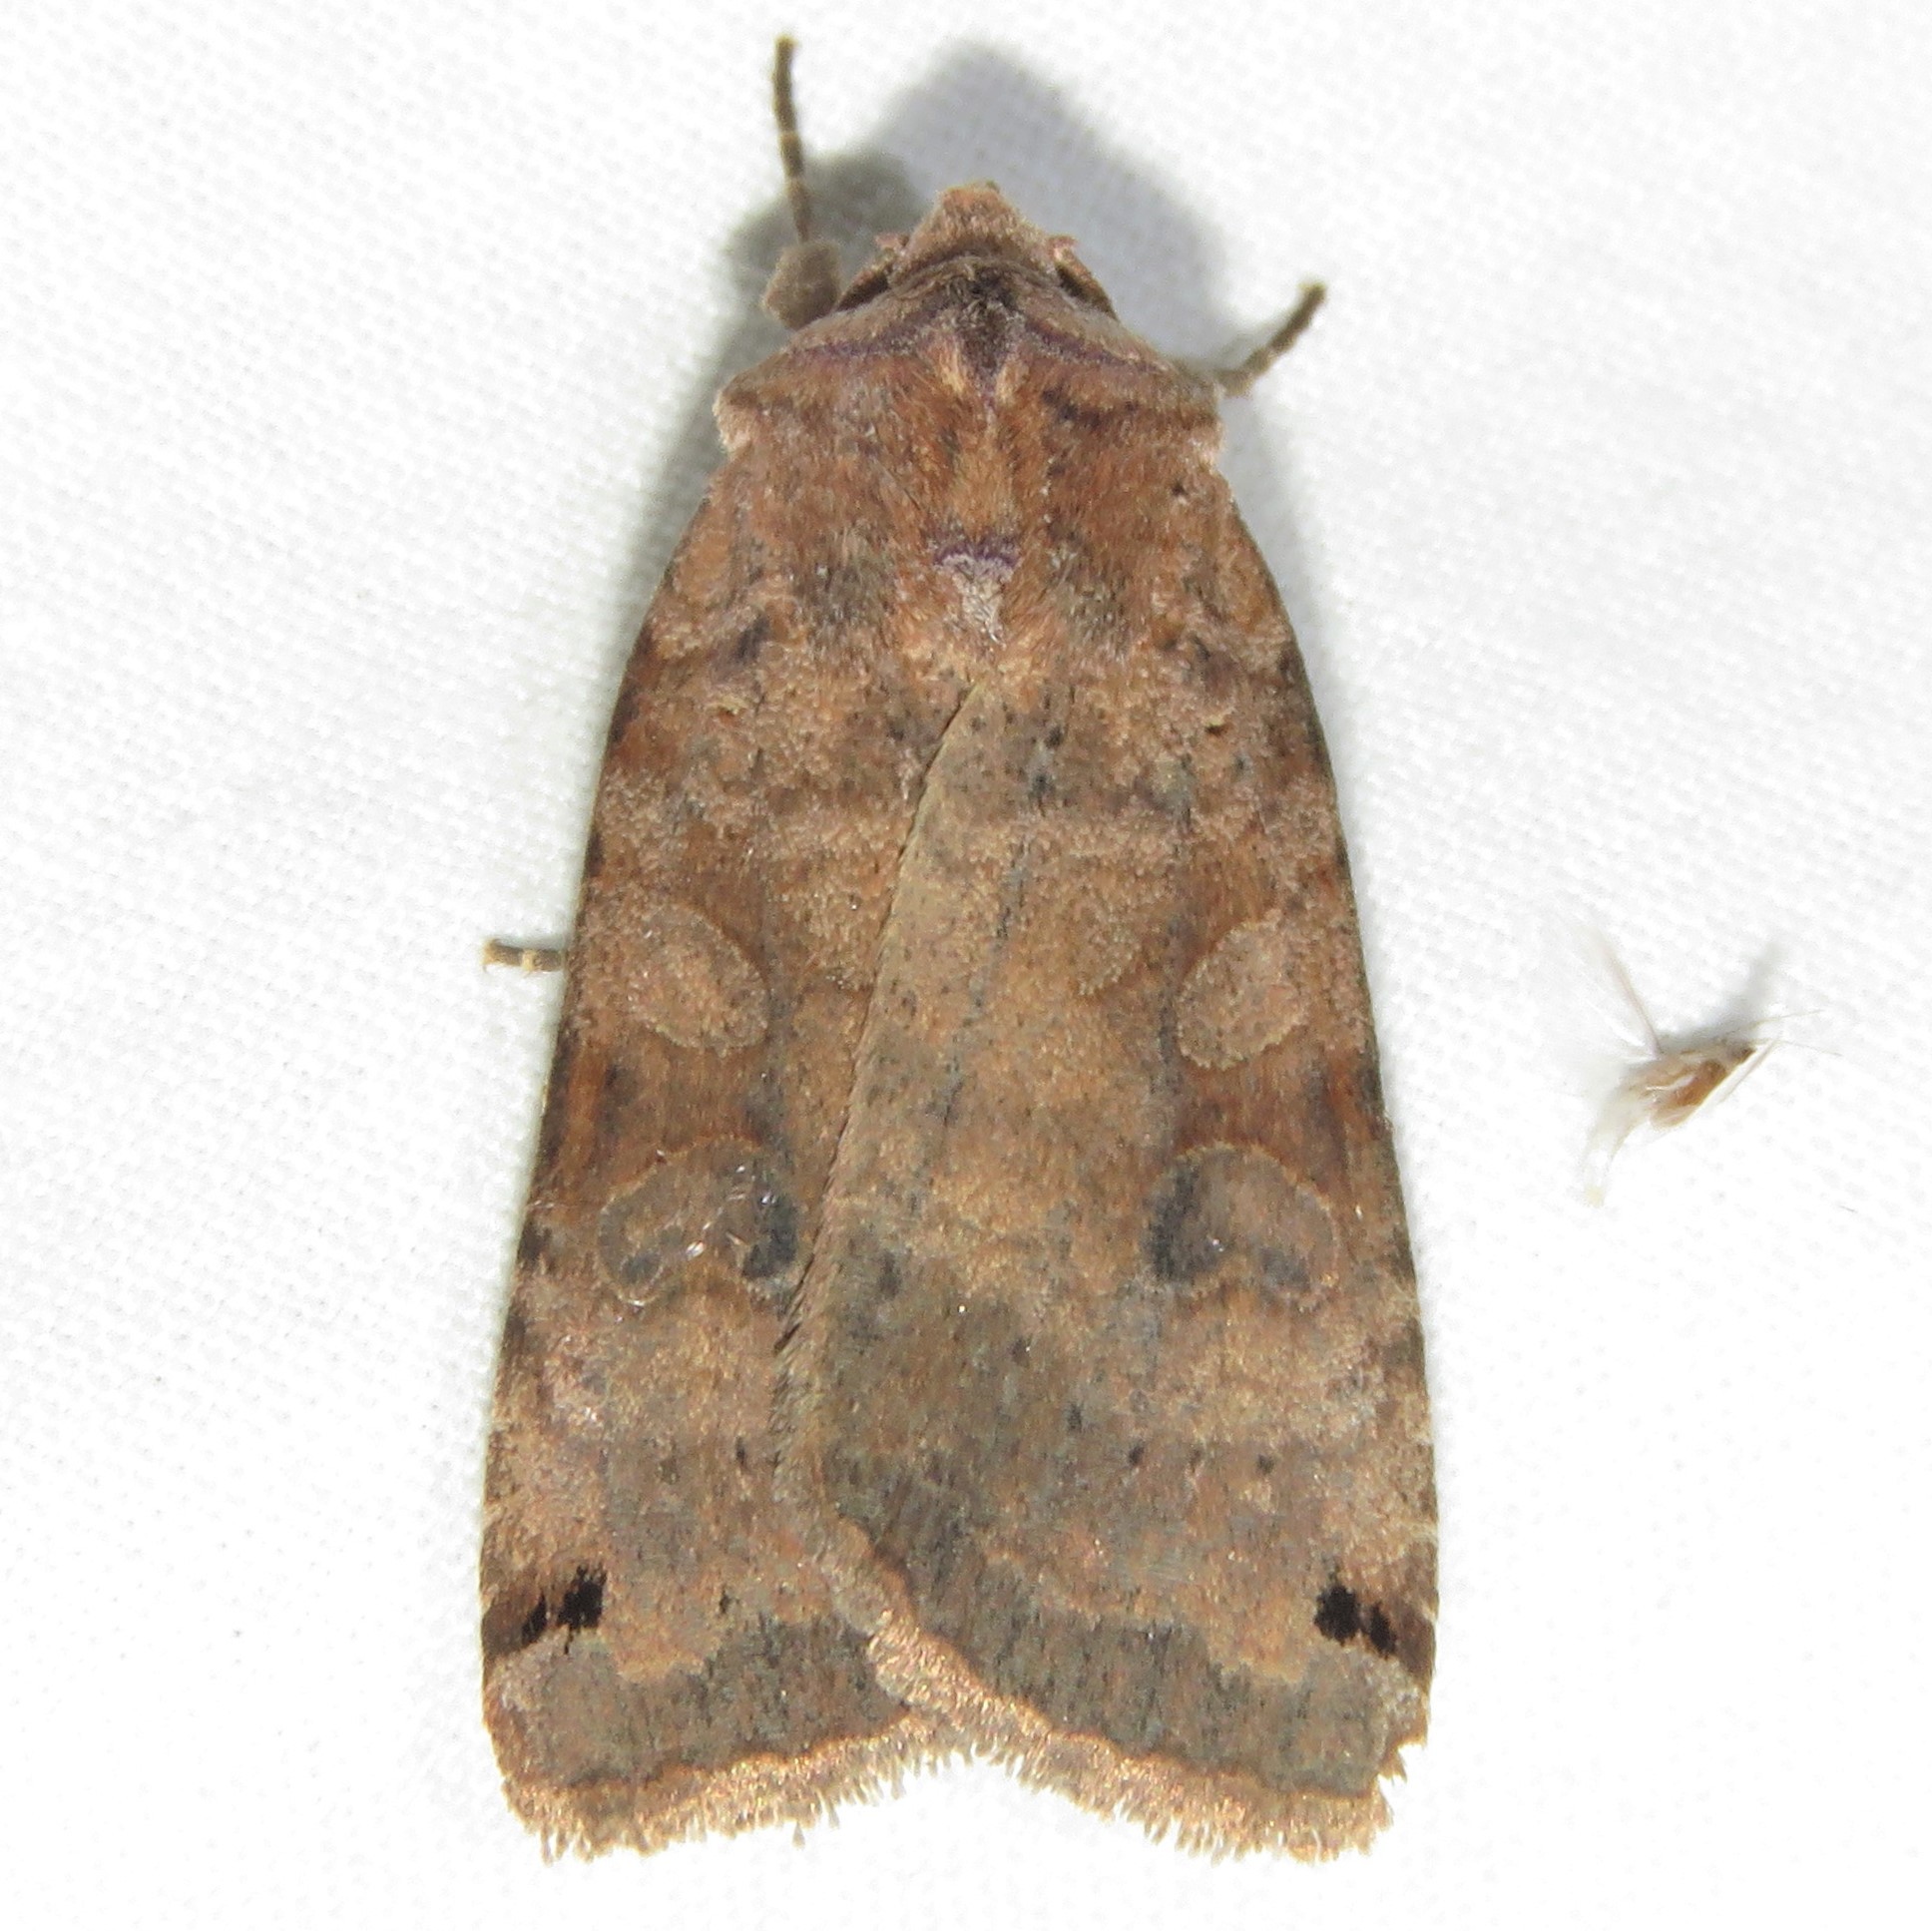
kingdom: Animalia
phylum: Arthropoda
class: Insecta
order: Lepidoptera
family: Noctuidae
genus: Xestia
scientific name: Xestia smithii
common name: Smith's dart
